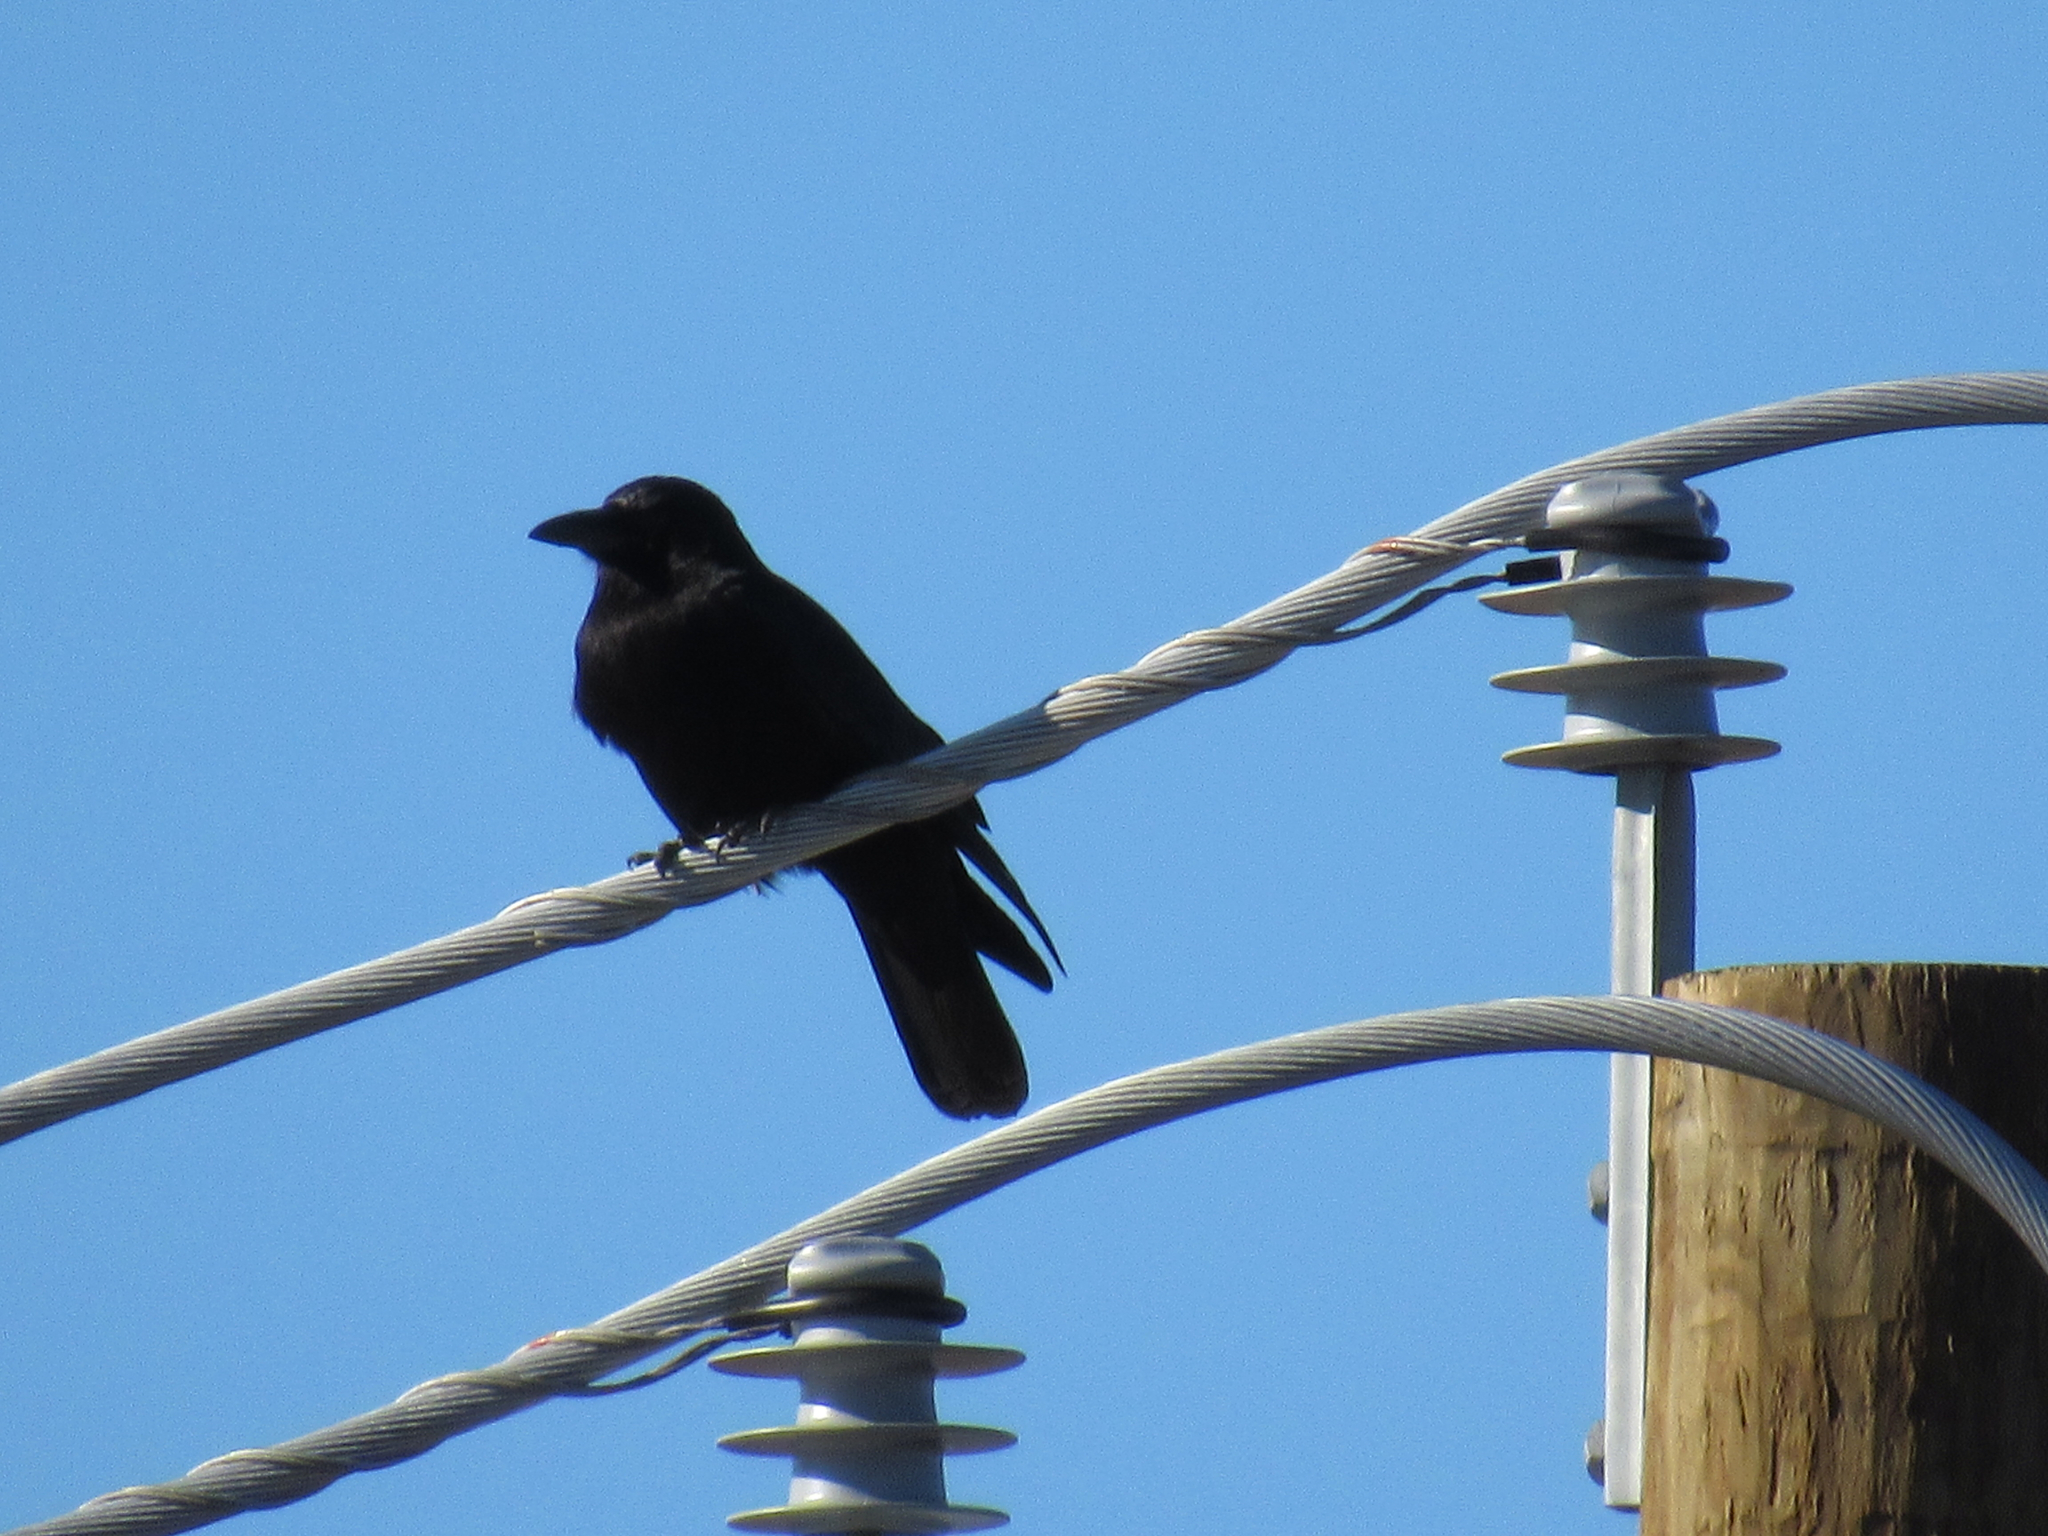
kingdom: Animalia
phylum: Chordata
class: Aves
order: Passeriformes
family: Corvidae
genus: Corvus
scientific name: Corvus brachyrhynchos
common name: American crow
